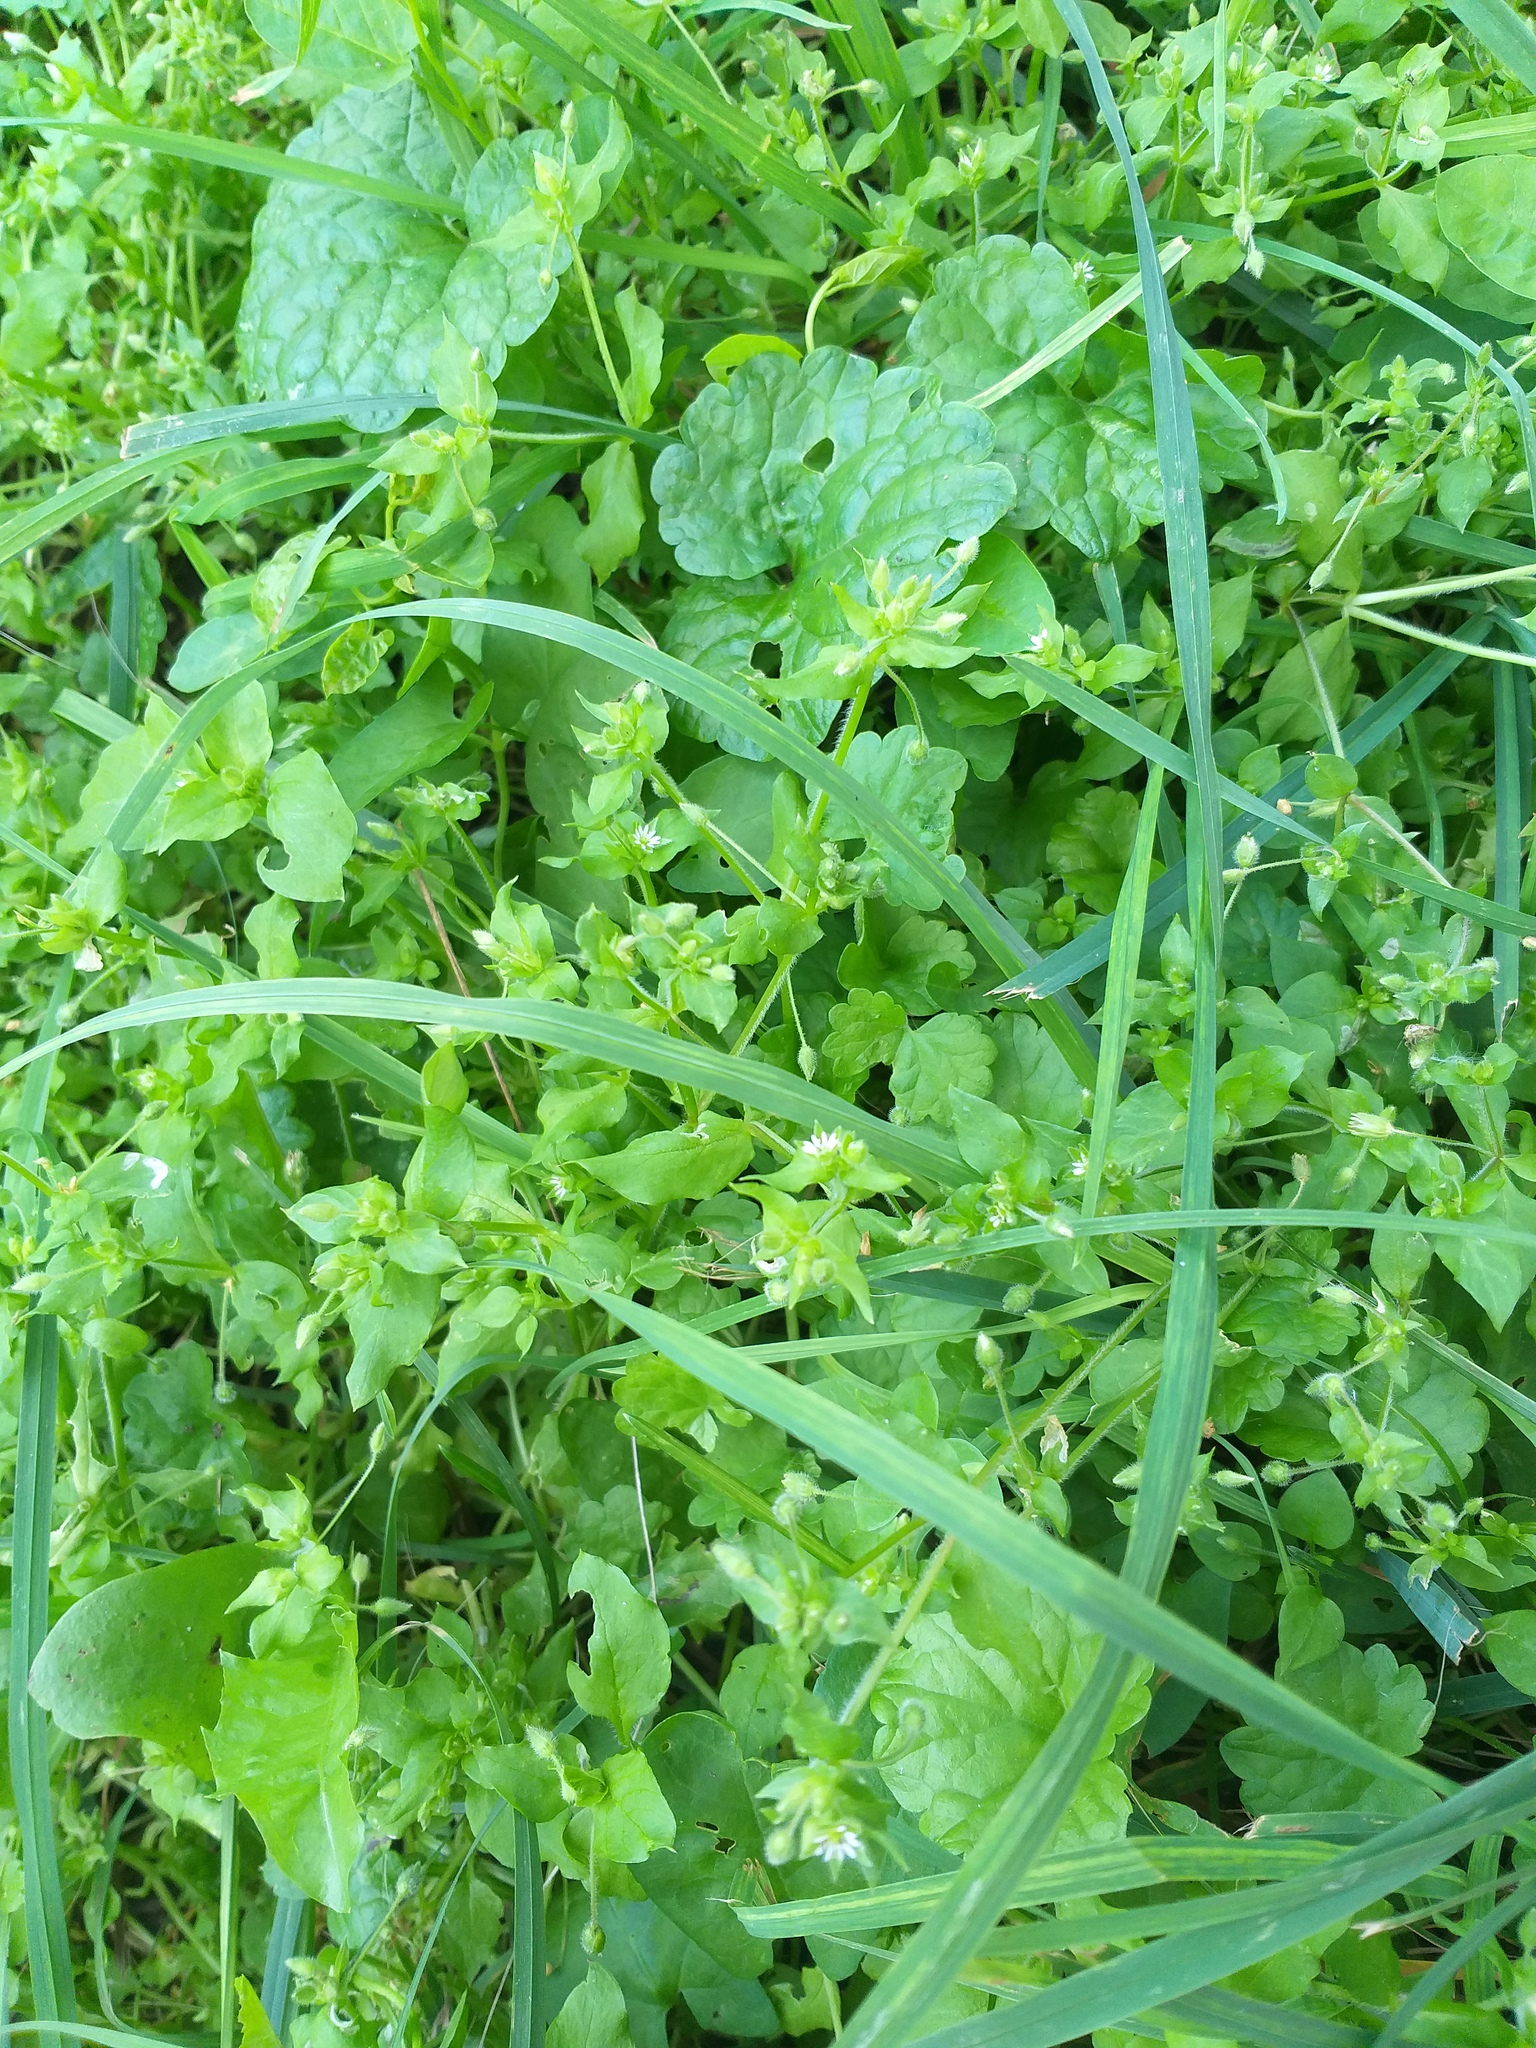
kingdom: Plantae
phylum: Tracheophyta
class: Magnoliopsida
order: Caryophyllales
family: Caryophyllaceae
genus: Stellaria
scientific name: Stellaria media
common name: Common chickweed
